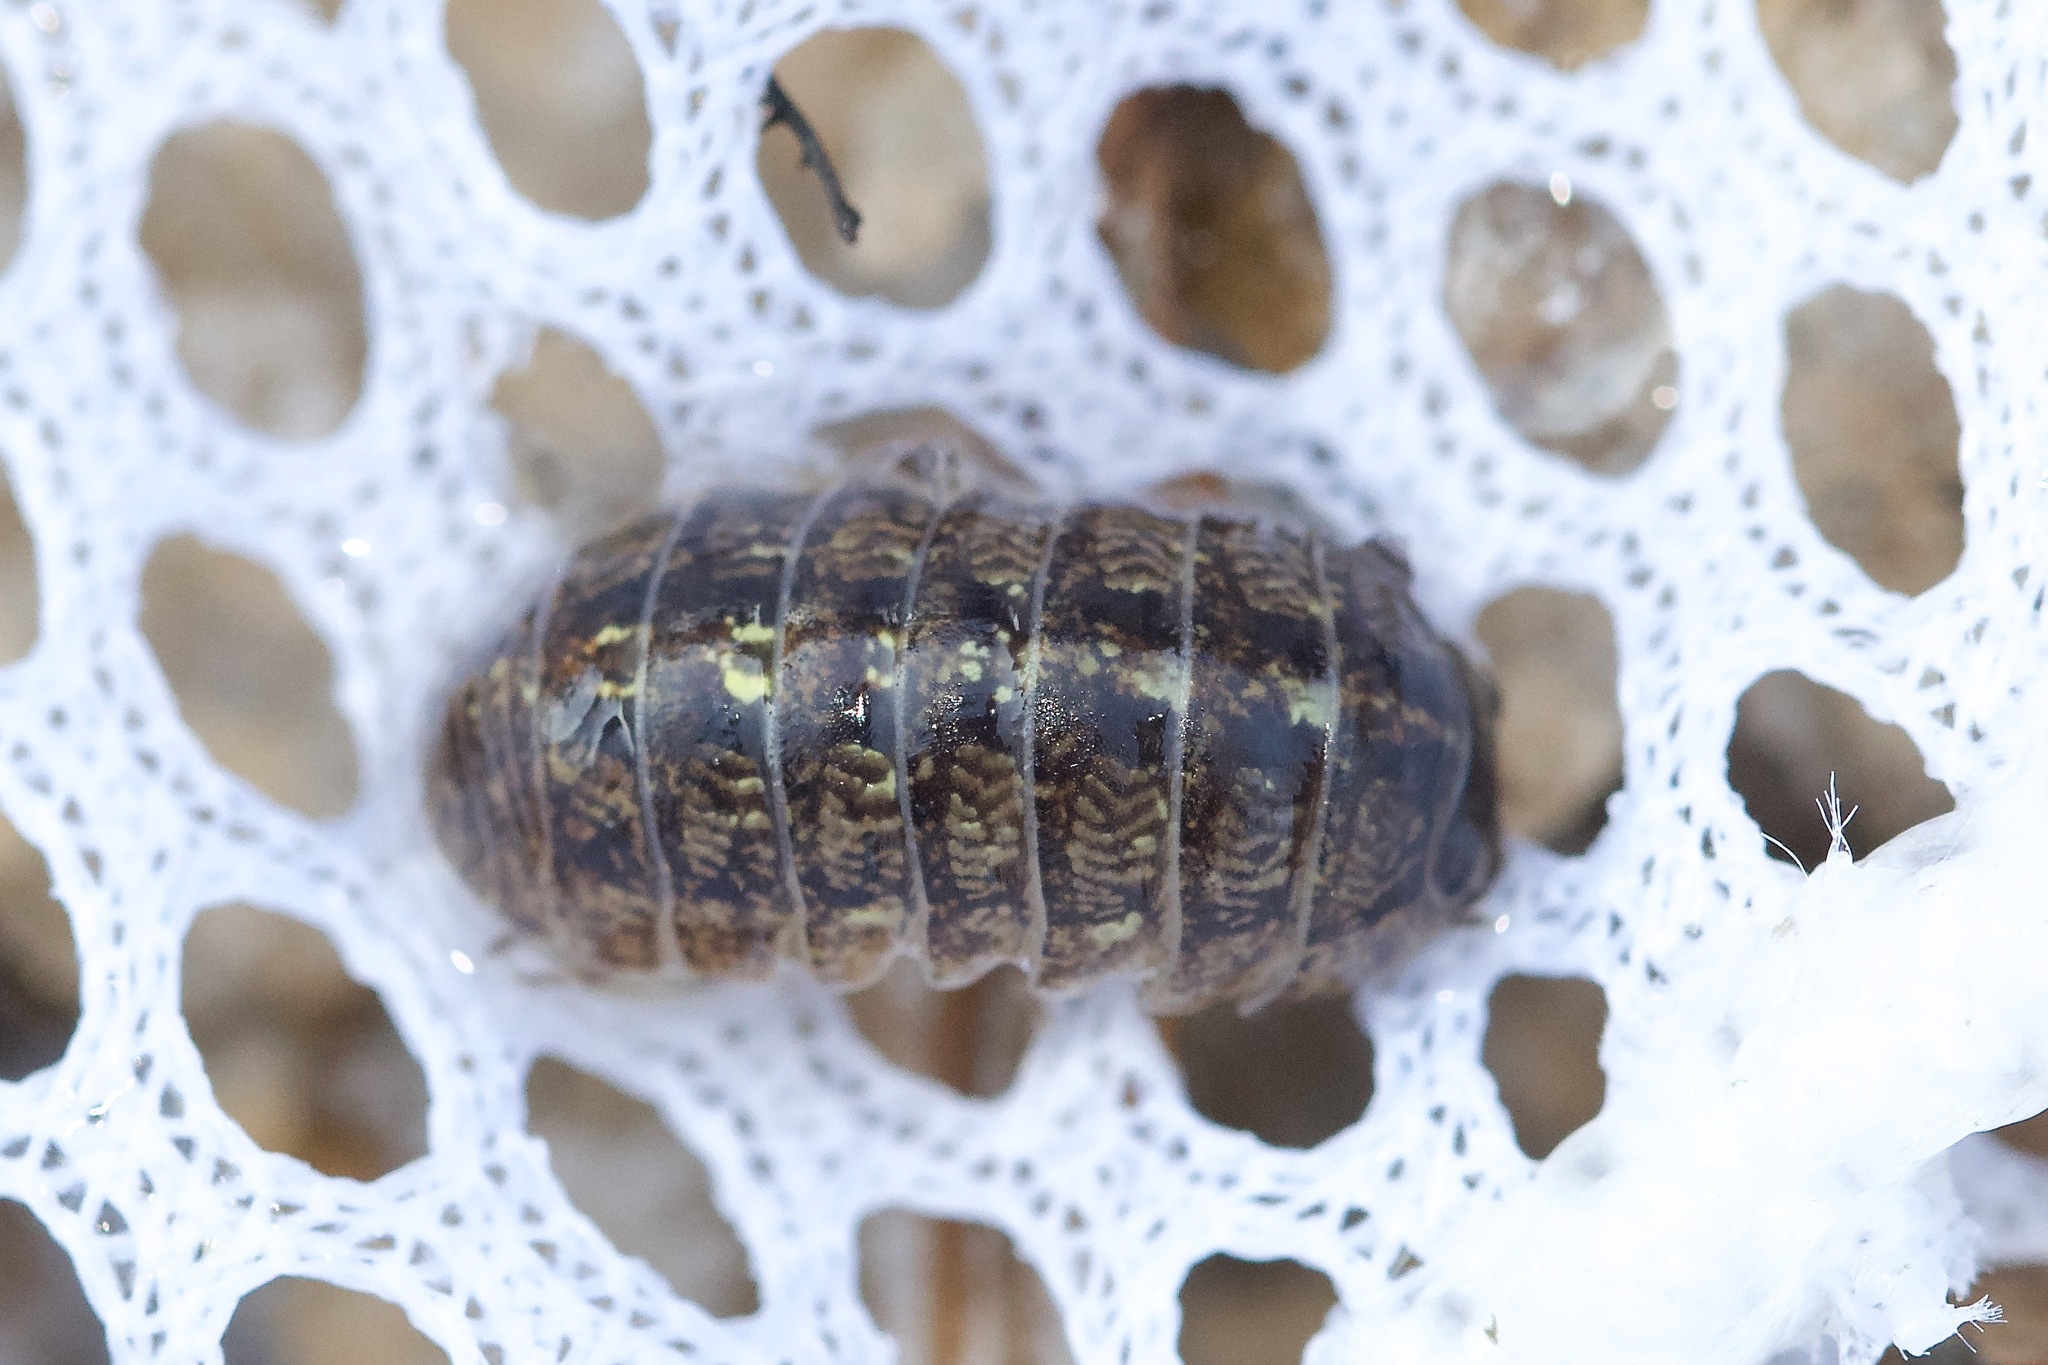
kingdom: Animalia
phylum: Arthropoda
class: Malacostraca
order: Isopoda
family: Armadillidiidae
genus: Armadillidium
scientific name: Armadillidium vulgare
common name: Common pill woodlouse
